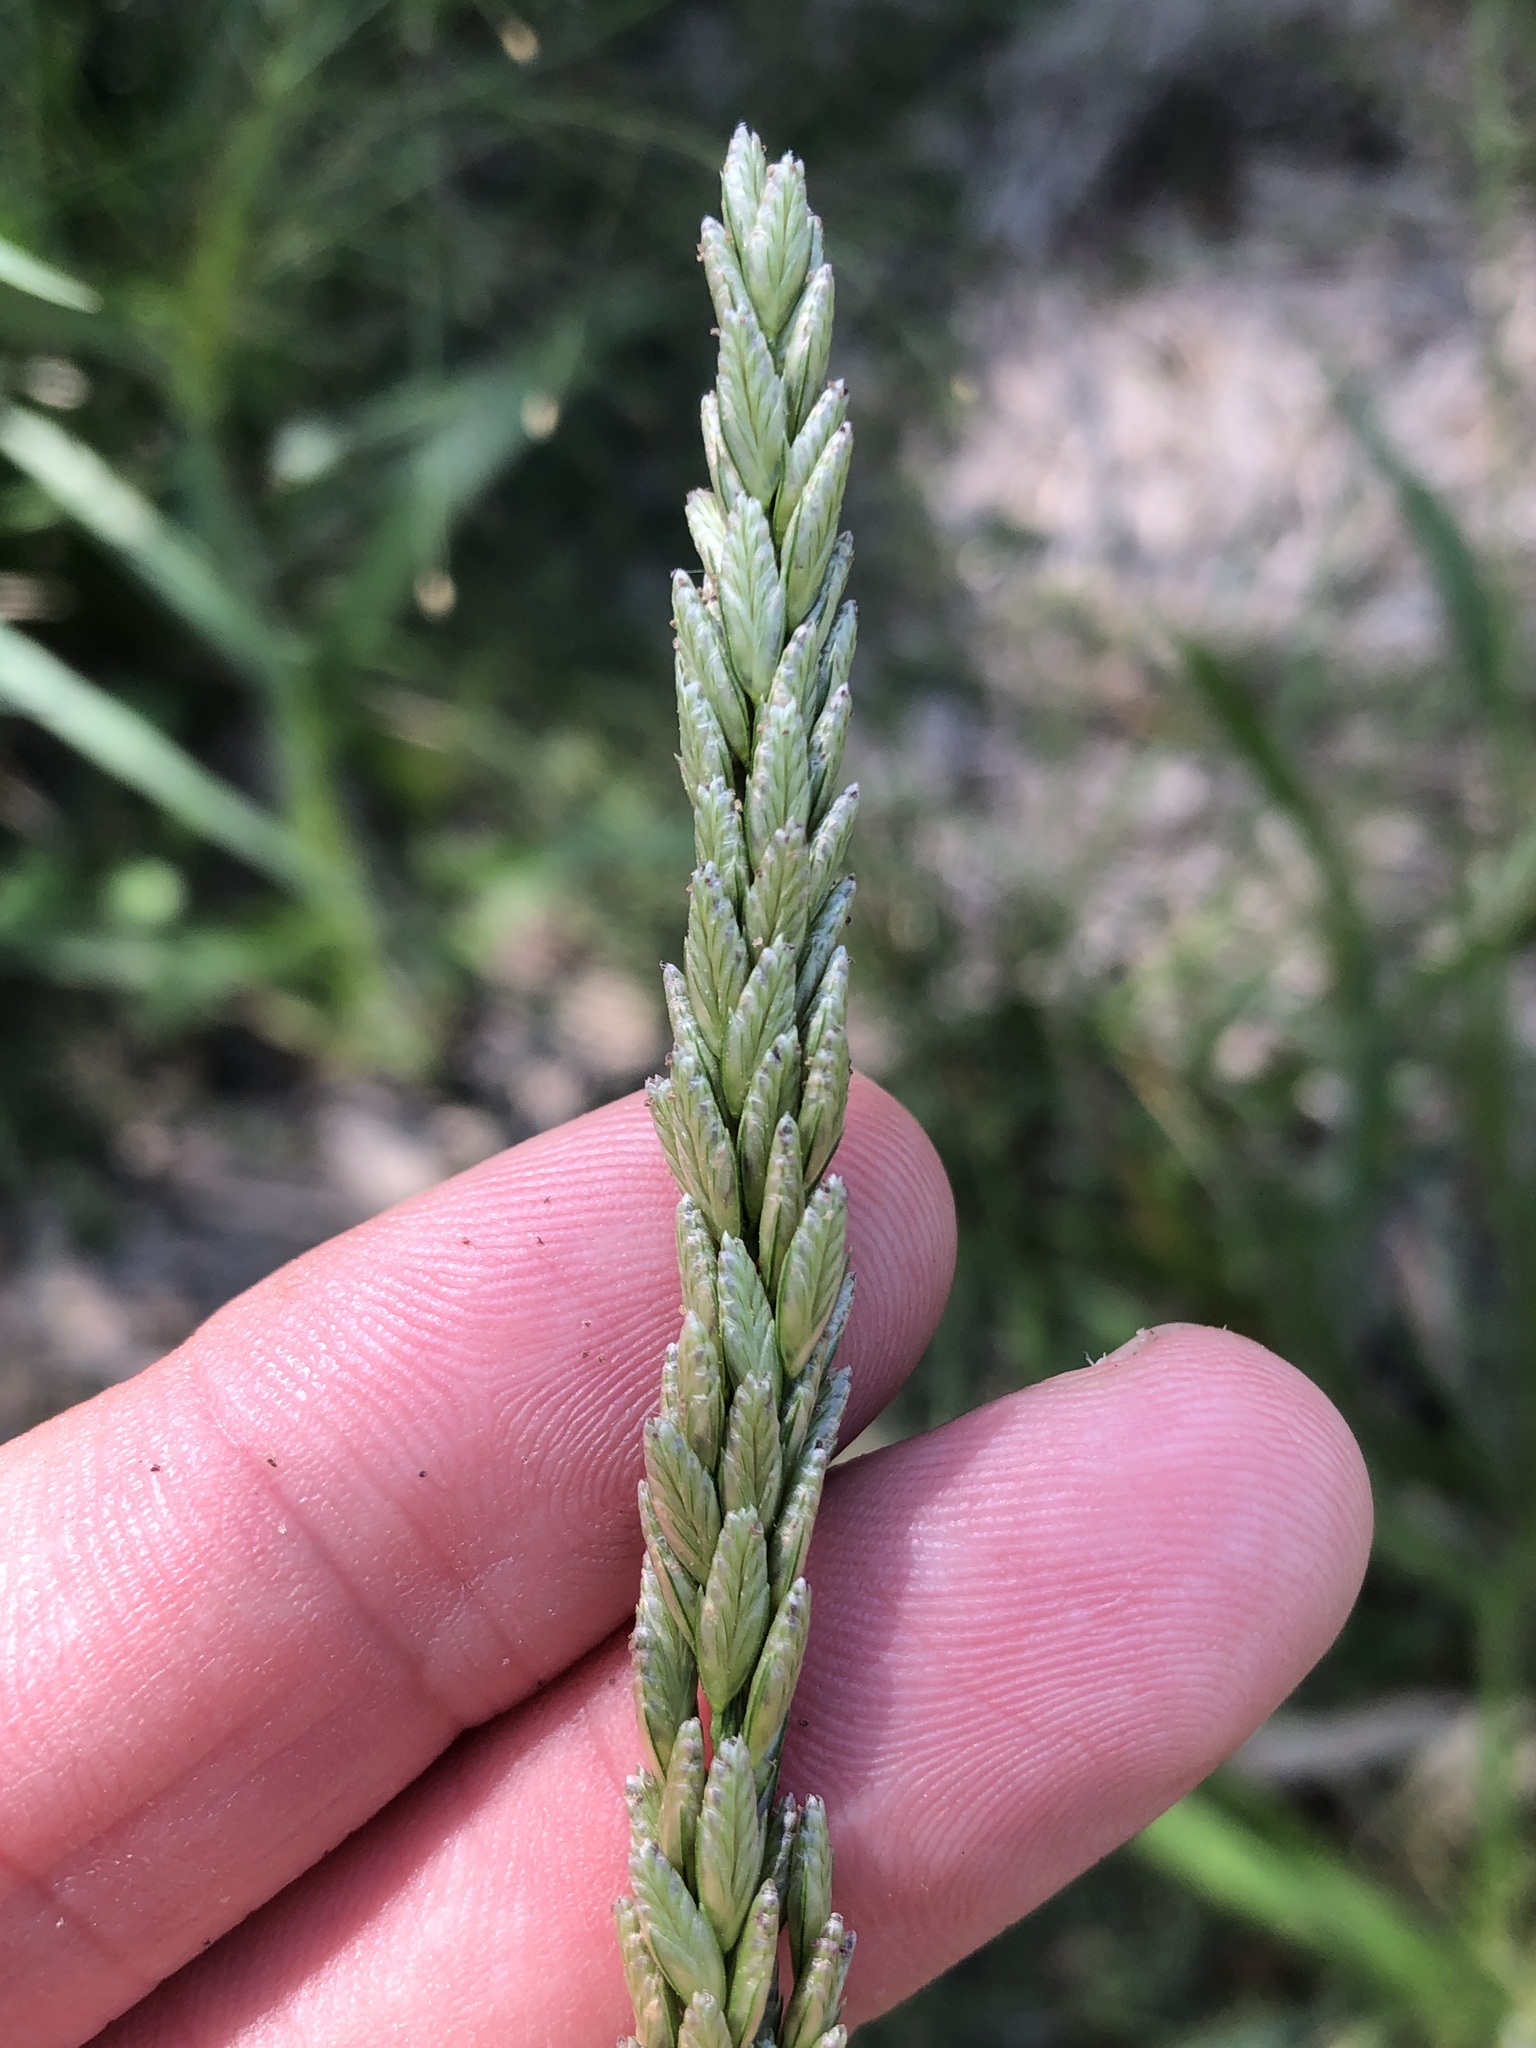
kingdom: Plantae
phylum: Tracheophyta
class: Liliopsida
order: Poales
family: Poaceae
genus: Tridens
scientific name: Tridens albescens
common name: White tridens
